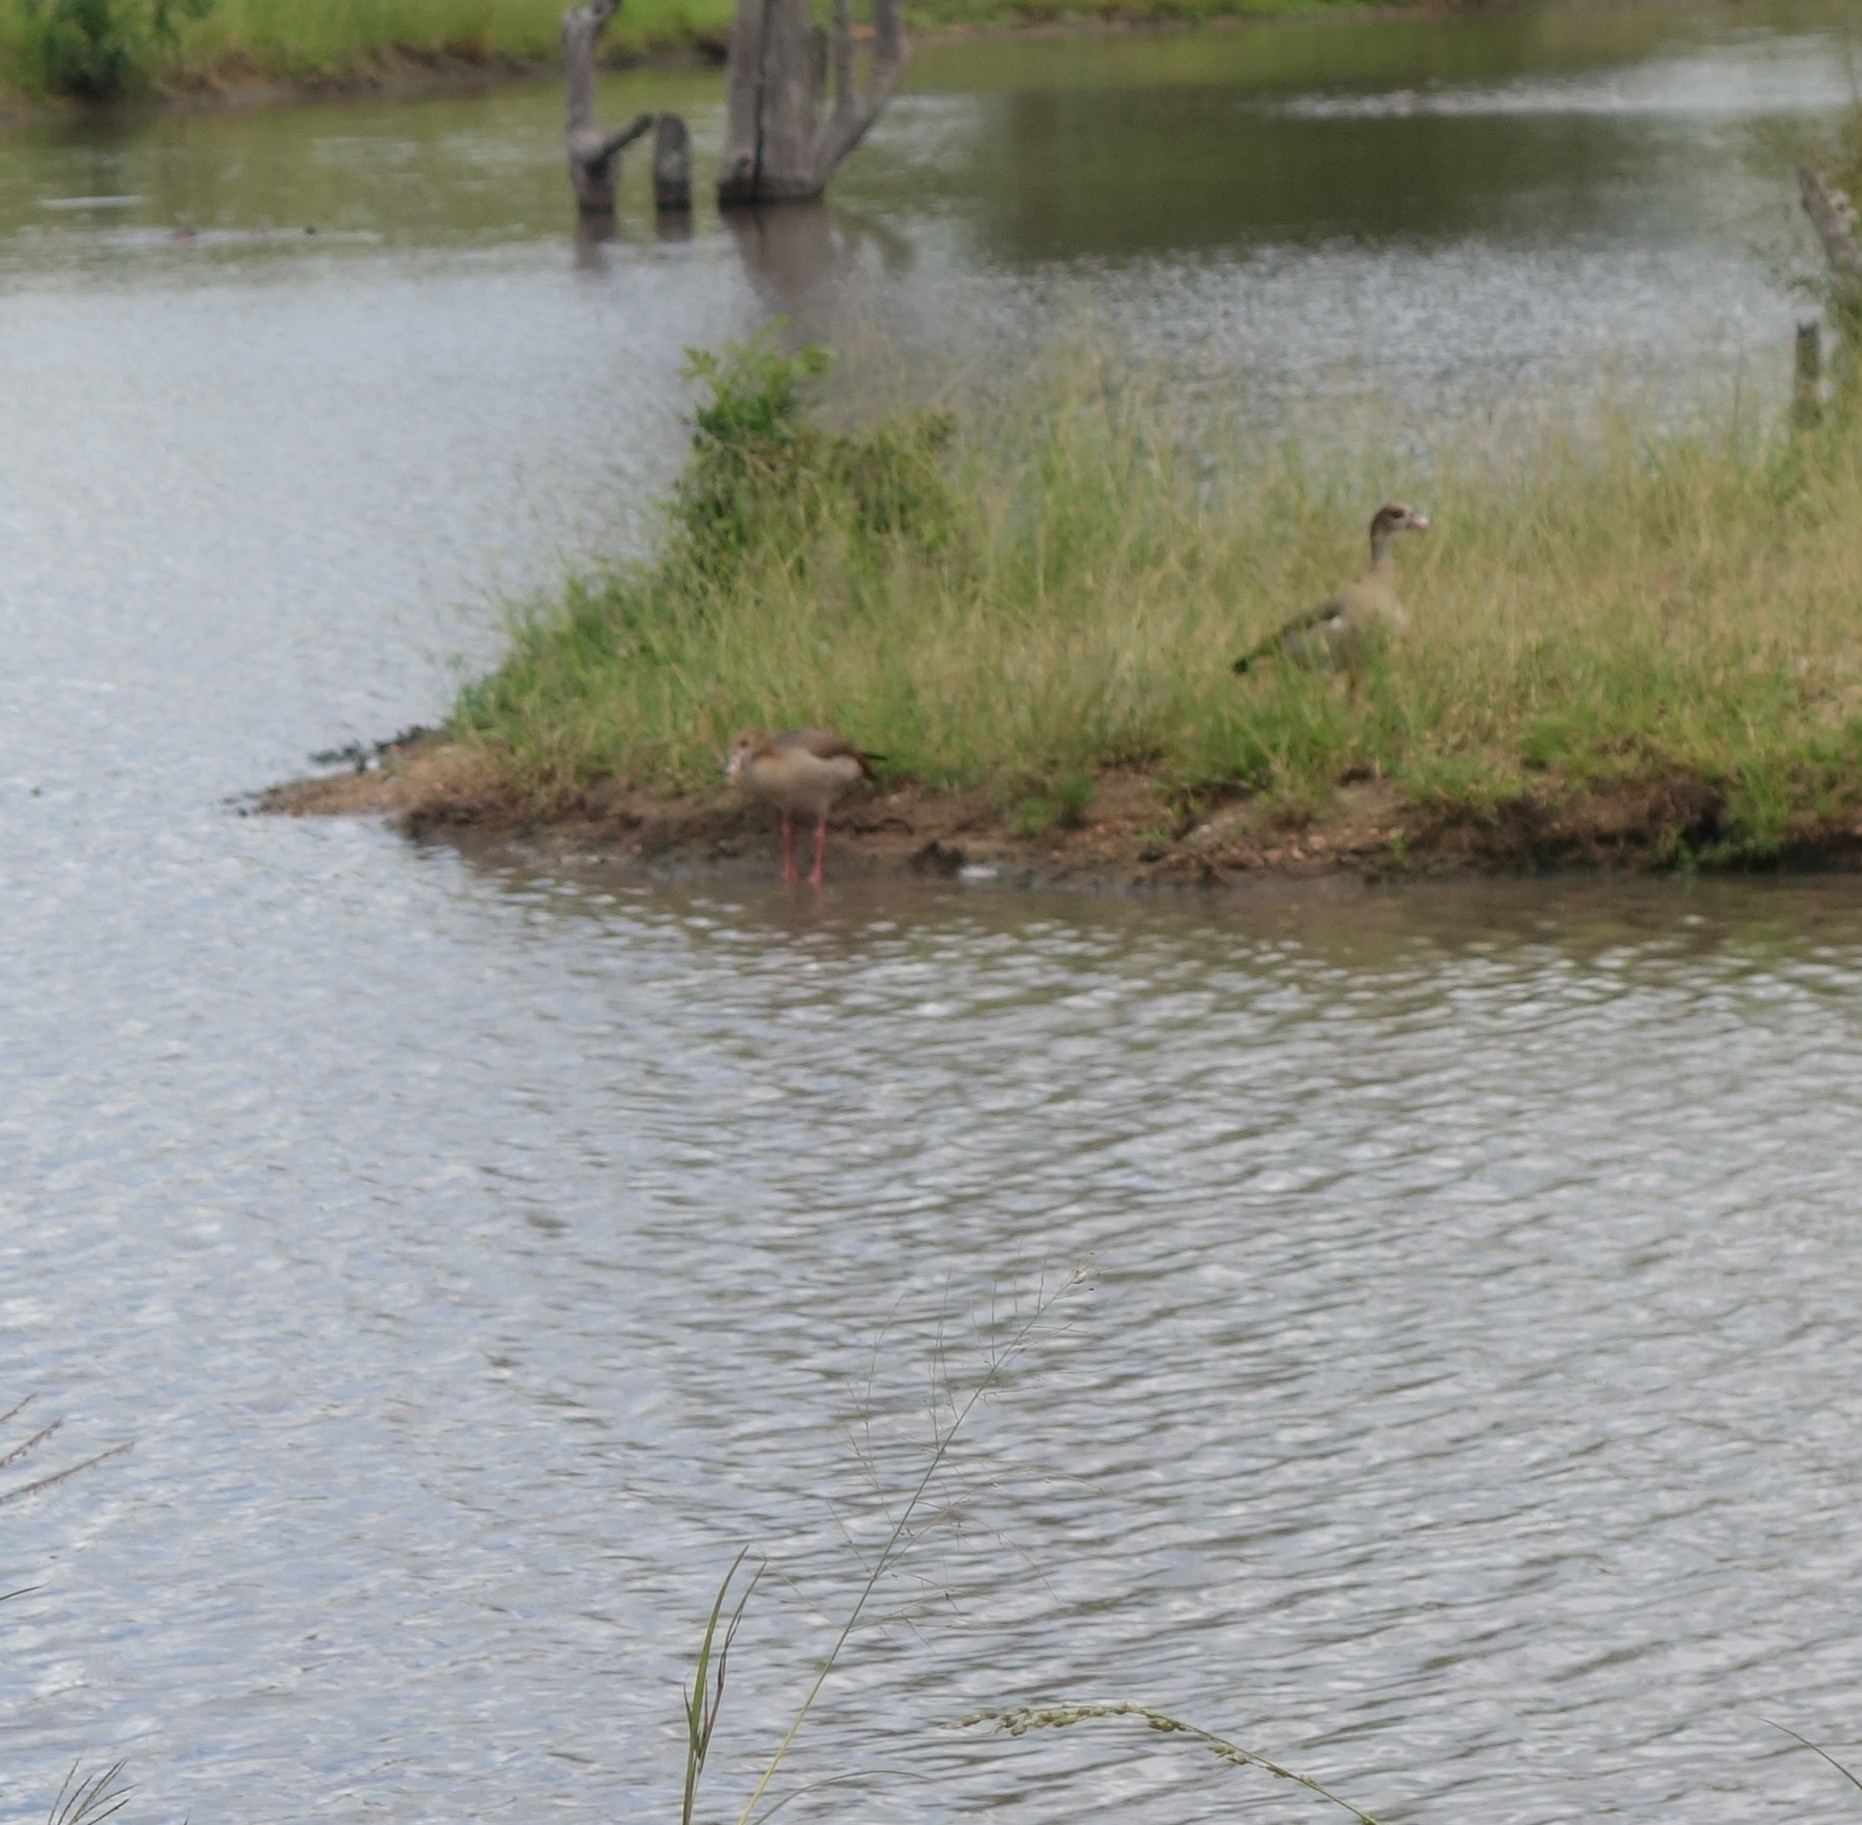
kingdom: Animalia
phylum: Chordata
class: Aves
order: Anseriformes
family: Anatidae
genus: Alopochen
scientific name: Alopochen aegyptiaca
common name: Egyptian goose
